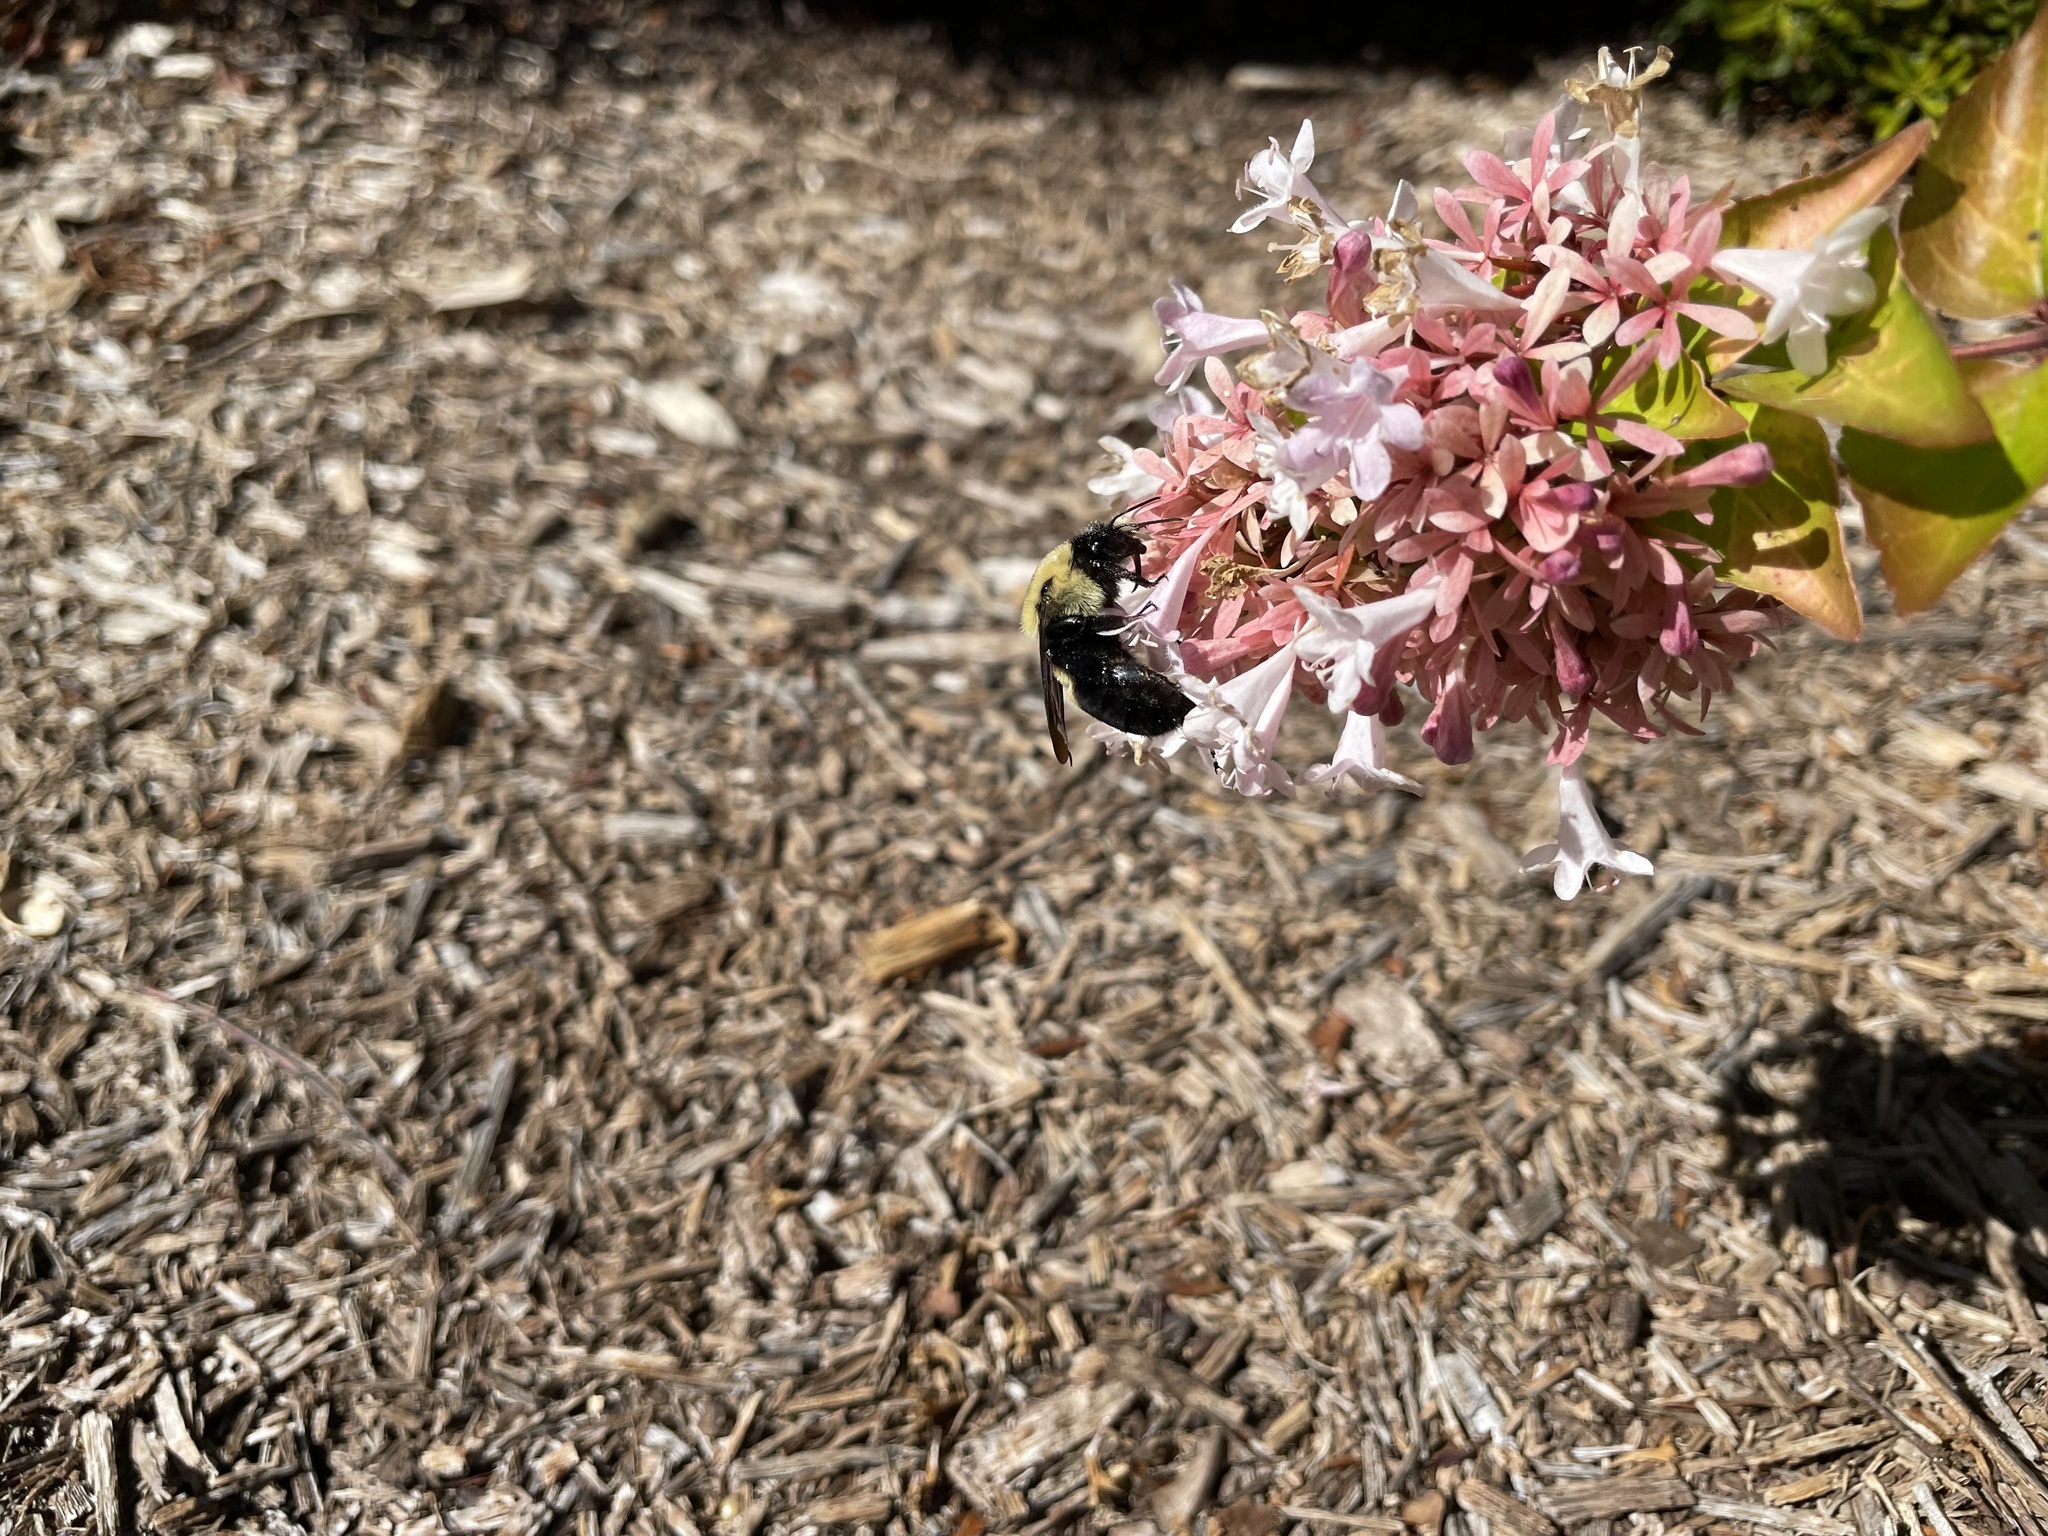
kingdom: Animalia
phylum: Arthropoda
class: Insecta
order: Hymenoptera
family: Apidae
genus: Bombus
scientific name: Bombus griseocollis
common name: Brown-belted bumble bee
